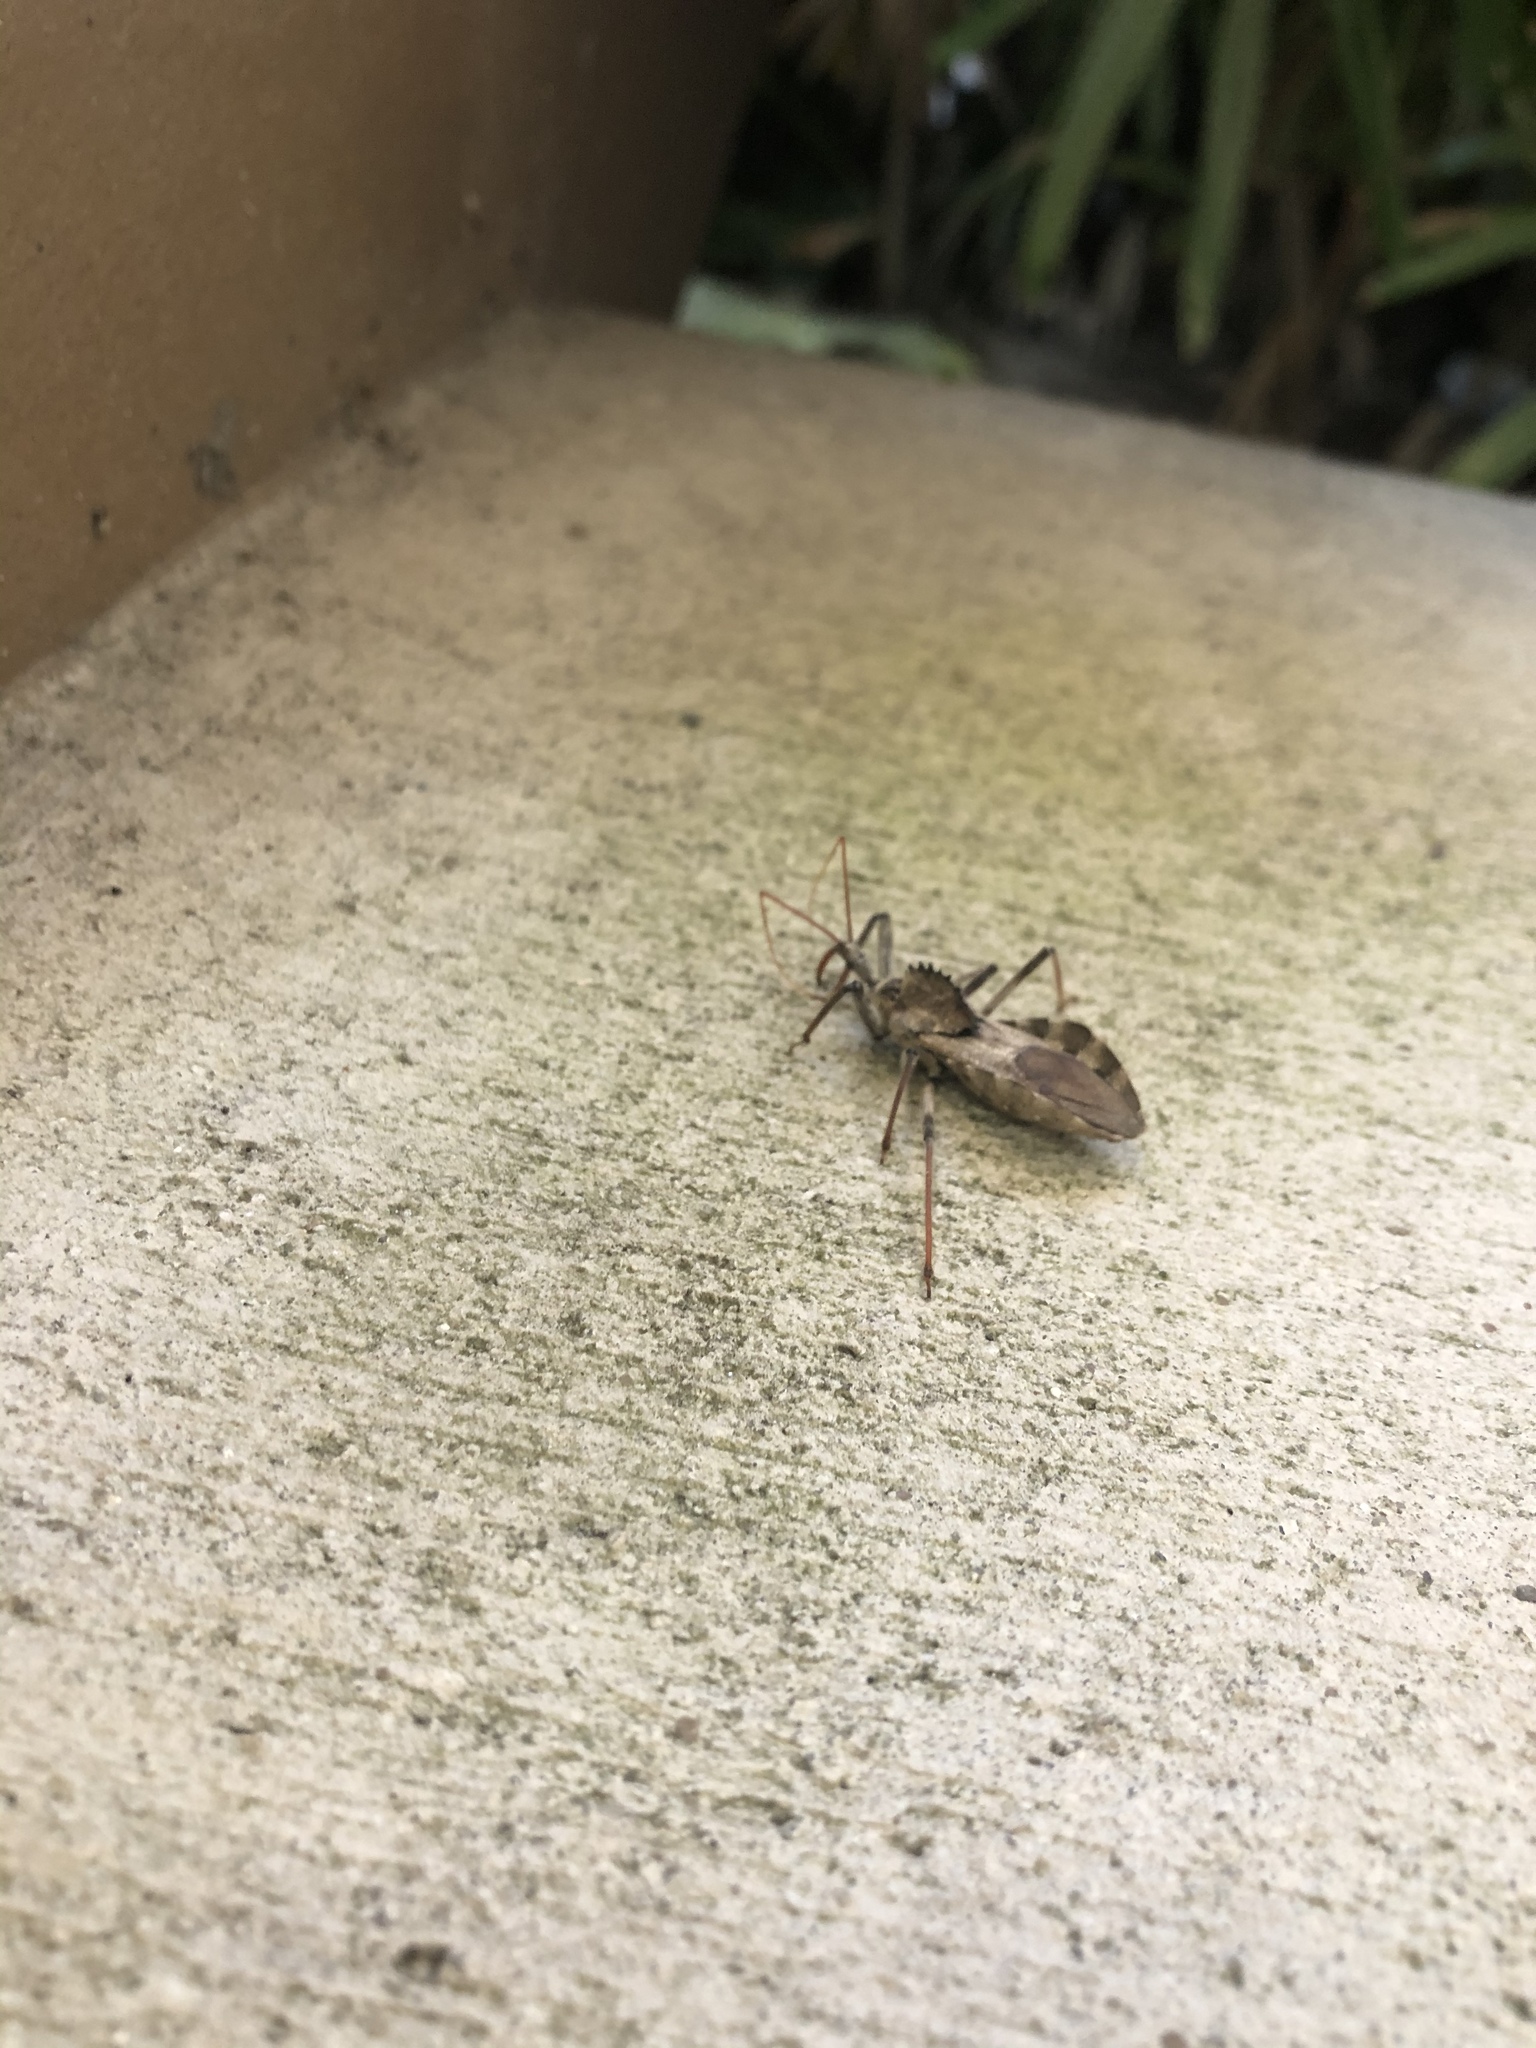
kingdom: Animalia
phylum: Arthropoda
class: Insecta
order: Hemiptera
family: Reduviidae
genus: Arilus
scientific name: Arilus cristatus
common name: North american wheel bug
